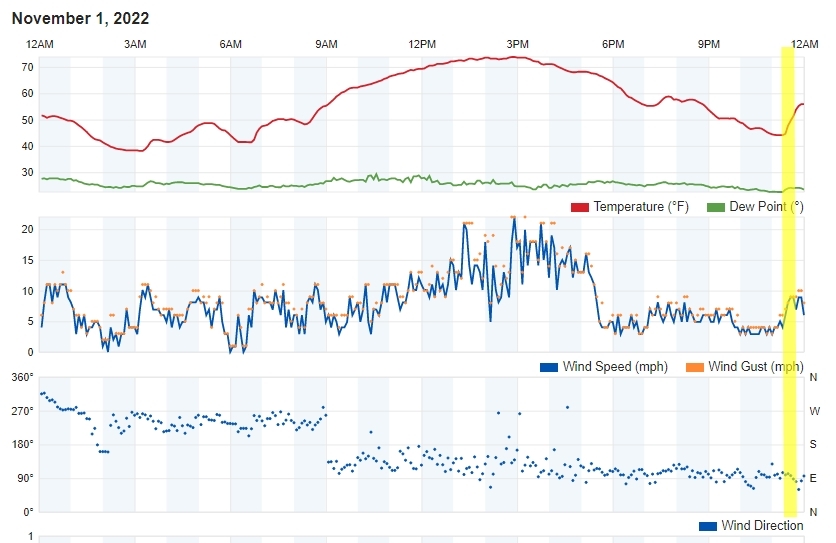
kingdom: Animalia
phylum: Chordata
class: Mammalia
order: Carnivora
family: Felidae
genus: Puma
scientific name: Puma concolor
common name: Puma
